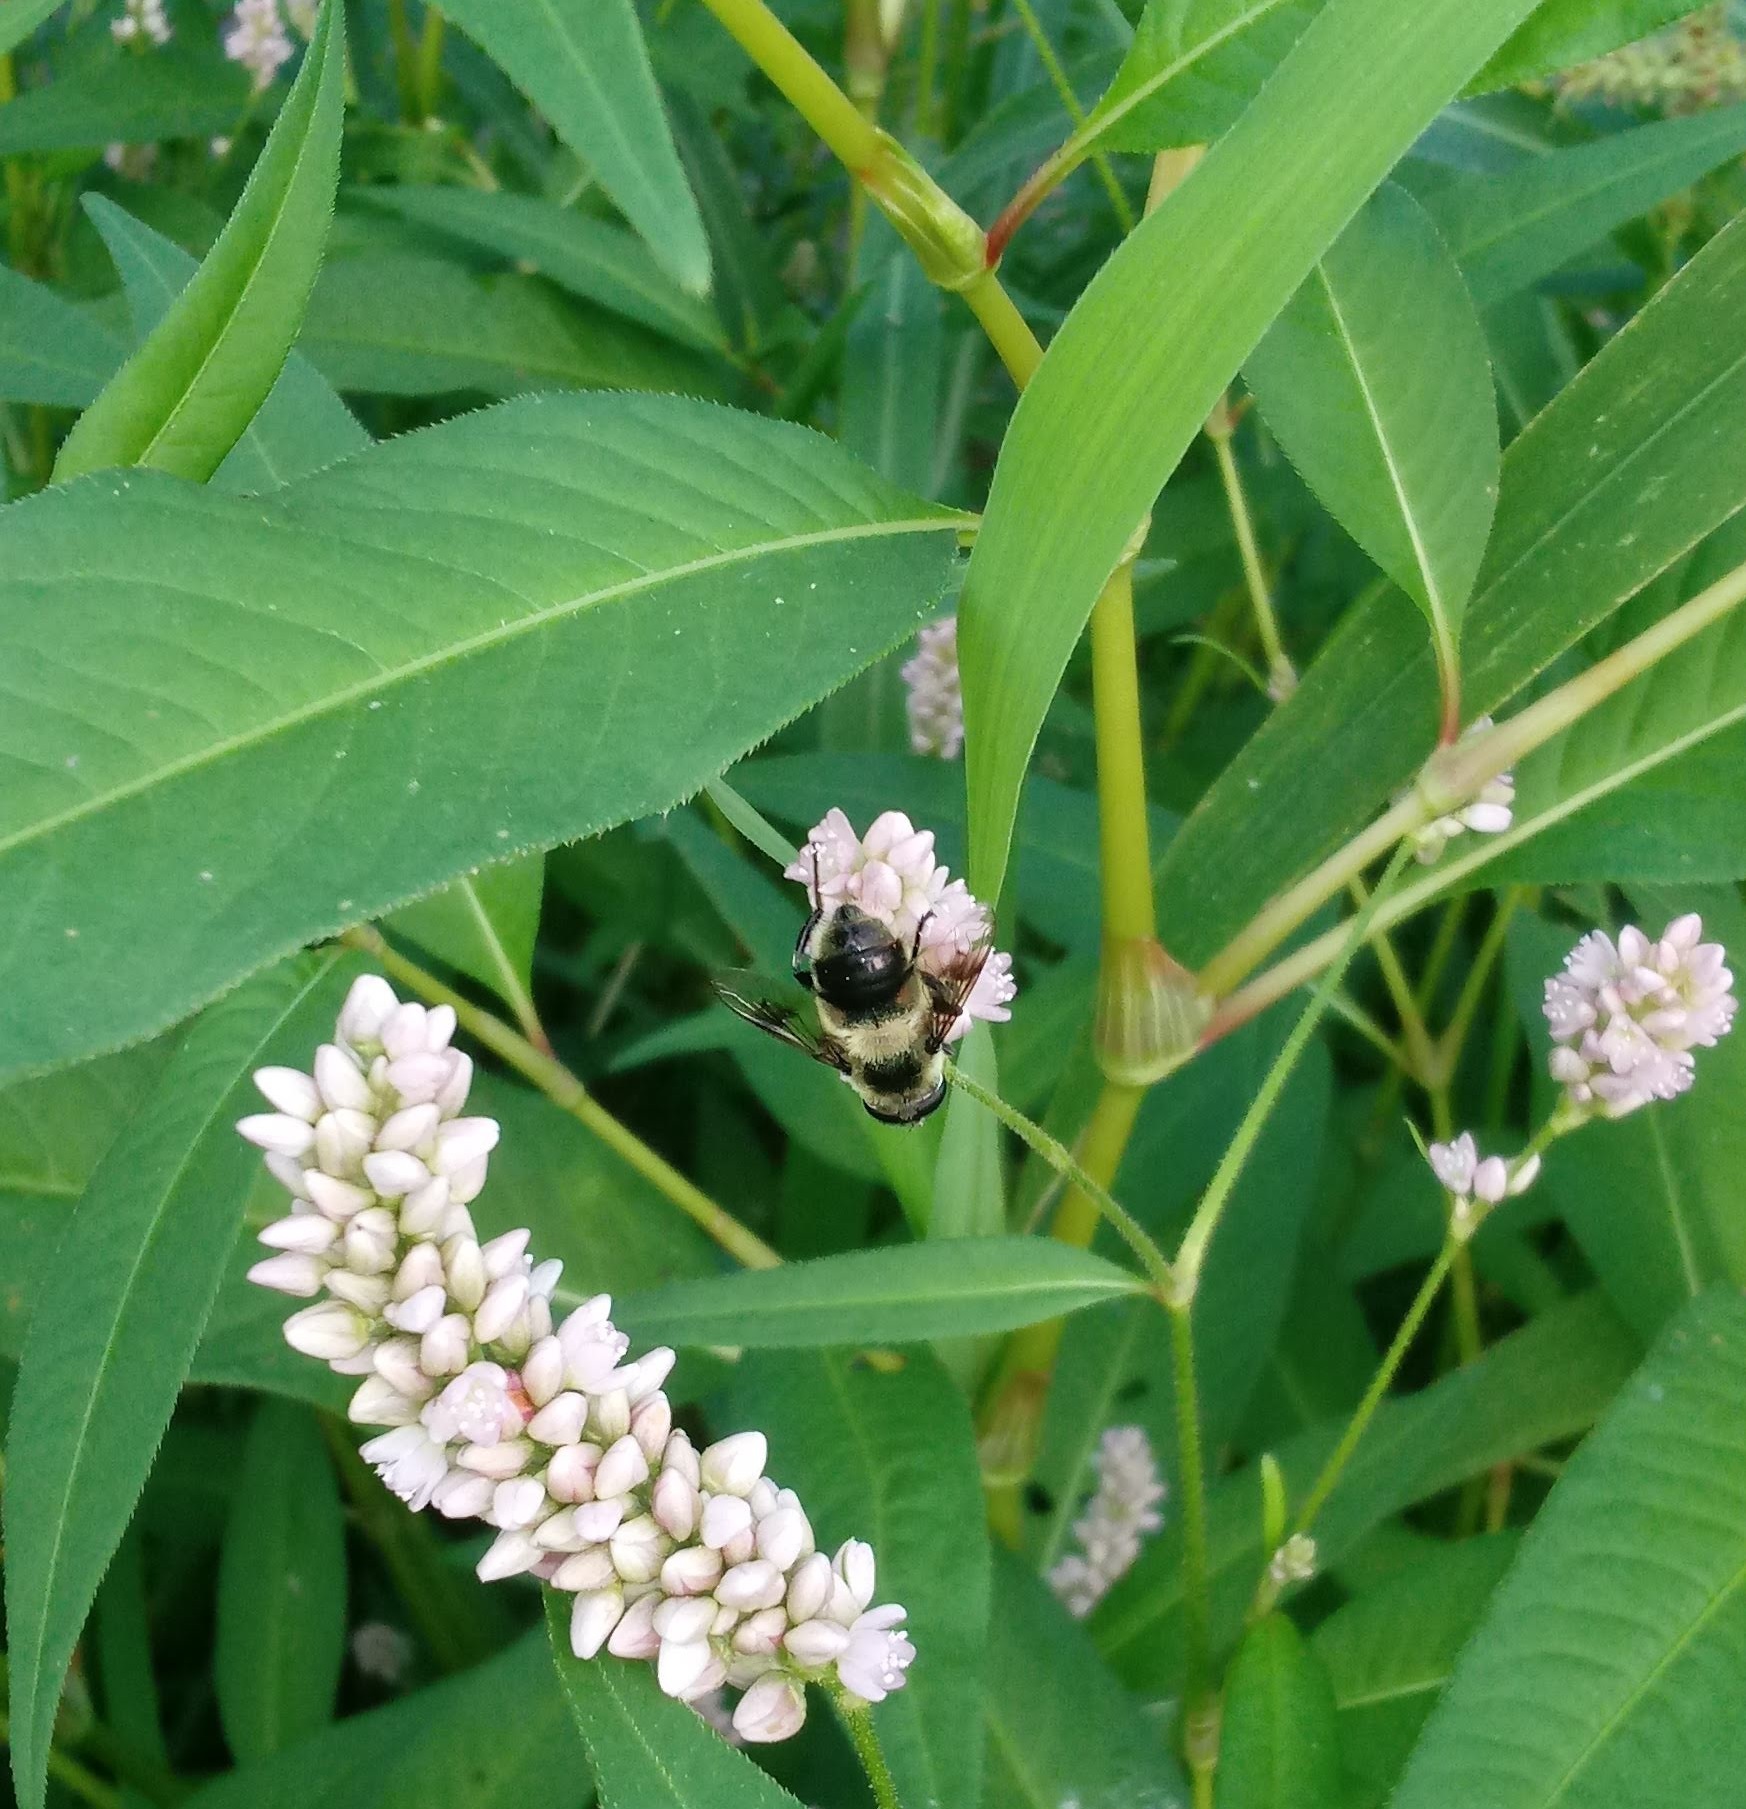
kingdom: Animalia
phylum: Arthropoda
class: Insecta
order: Diptera
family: Syrphidae
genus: Eristalis
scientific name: Eristalis anthophorina
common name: Orange-spotted drone fly
